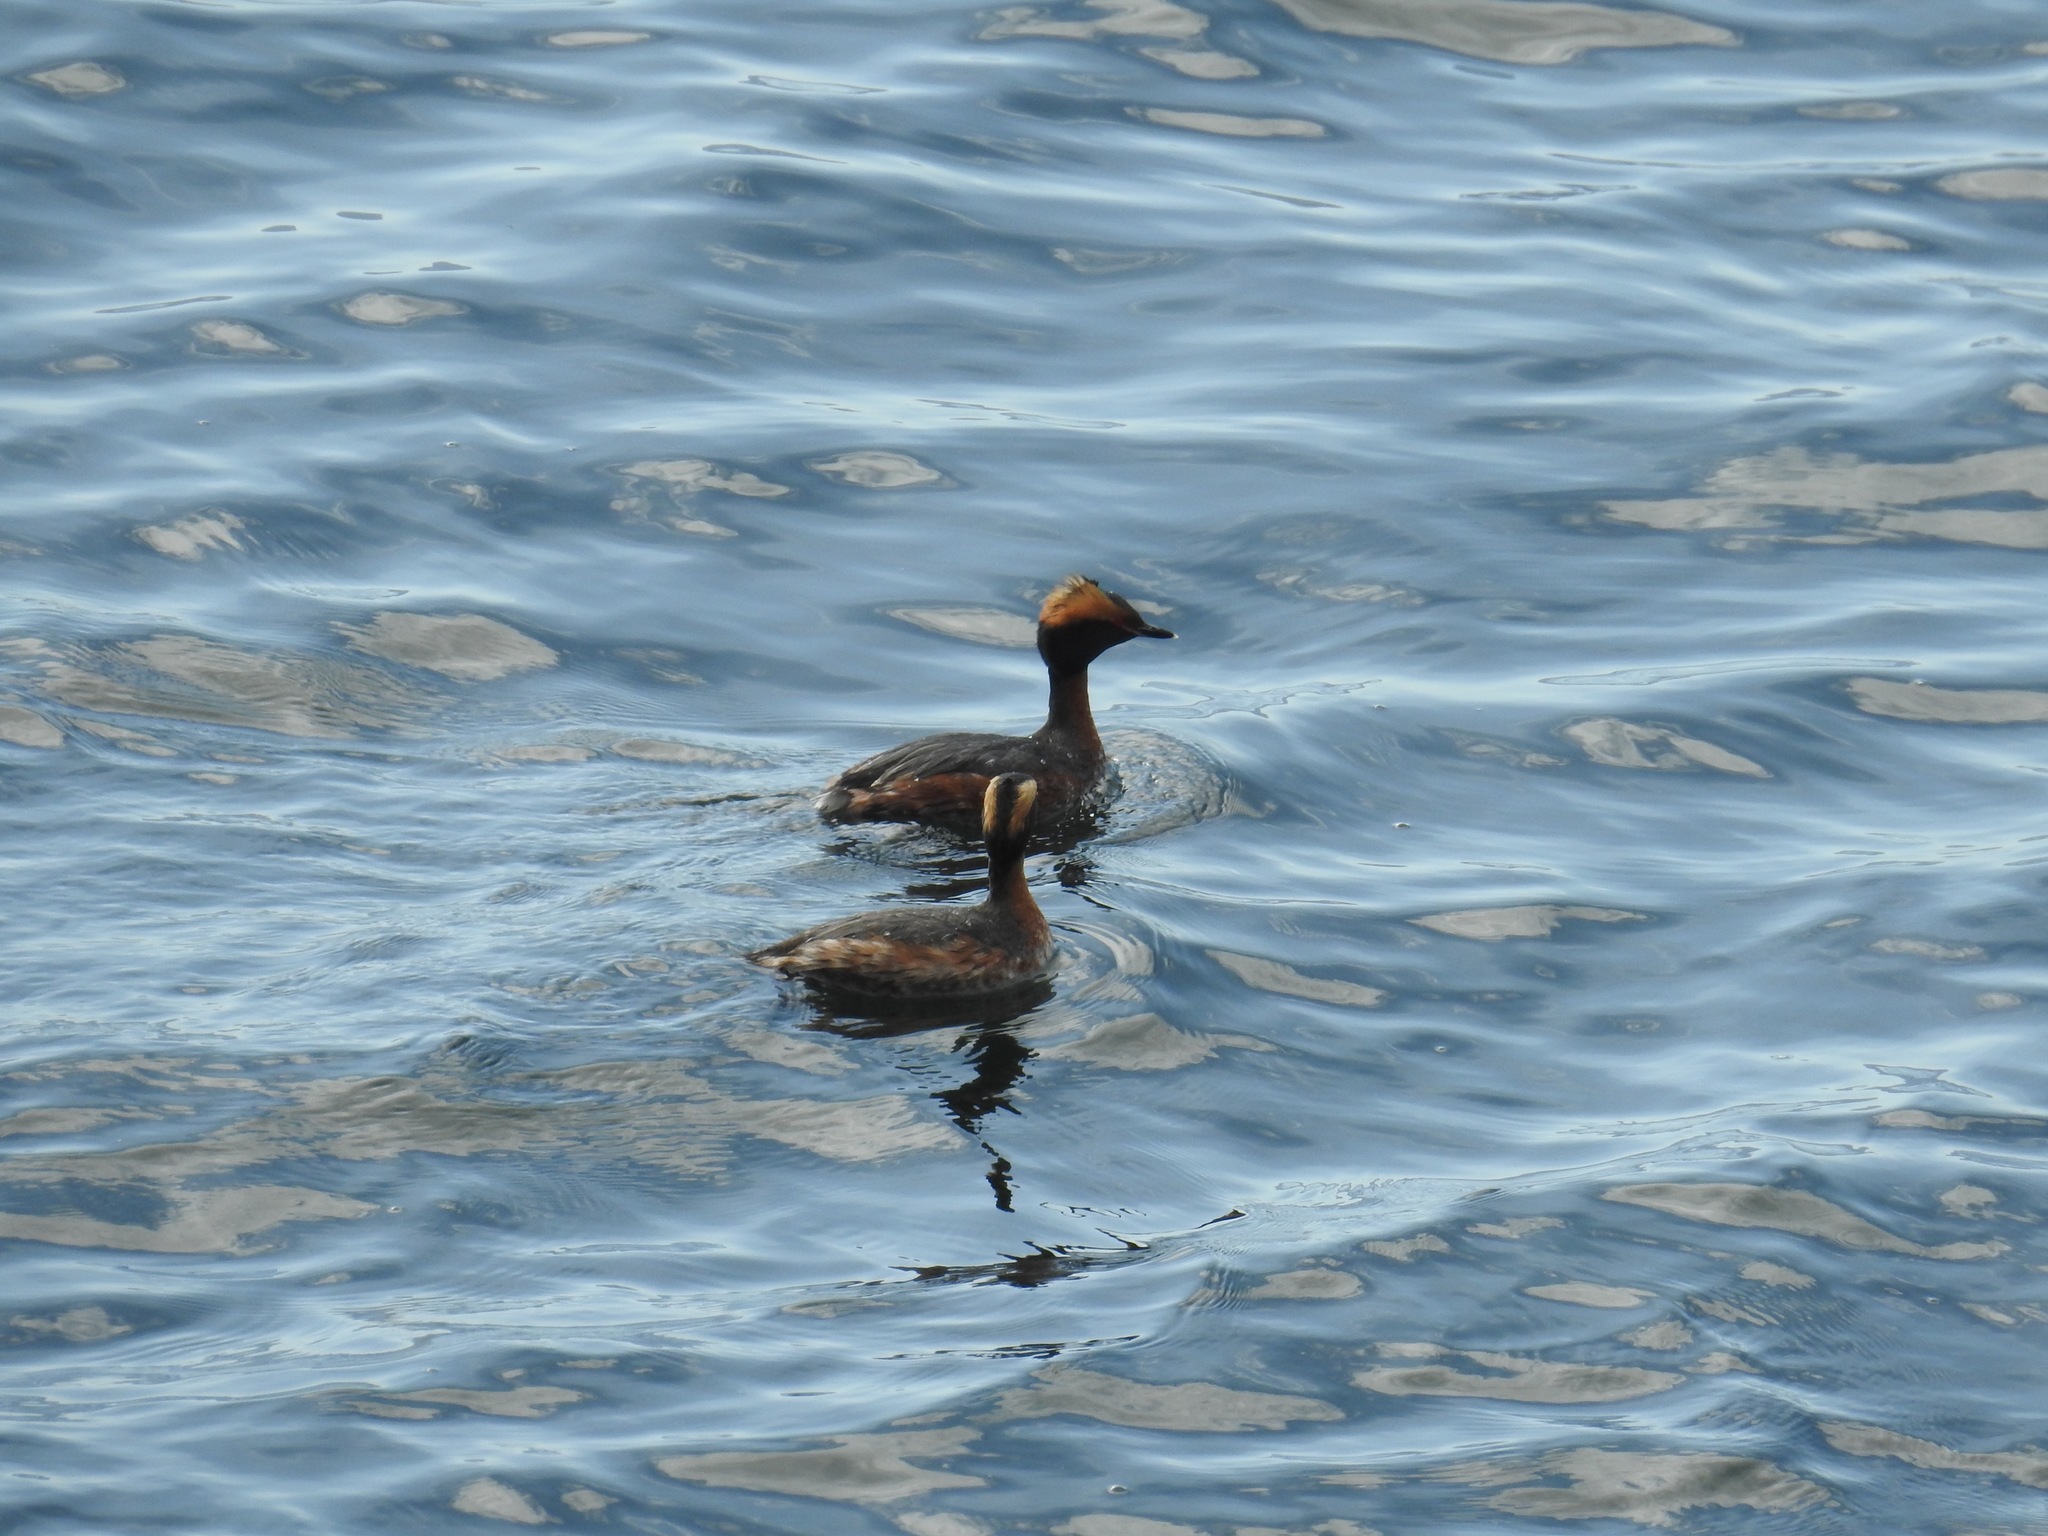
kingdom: Animalia
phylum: Chordata
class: Aves
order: Podicipediformes
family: Podicipedidae
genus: Podiceps
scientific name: Podiceps auritus
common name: Horned grebe
